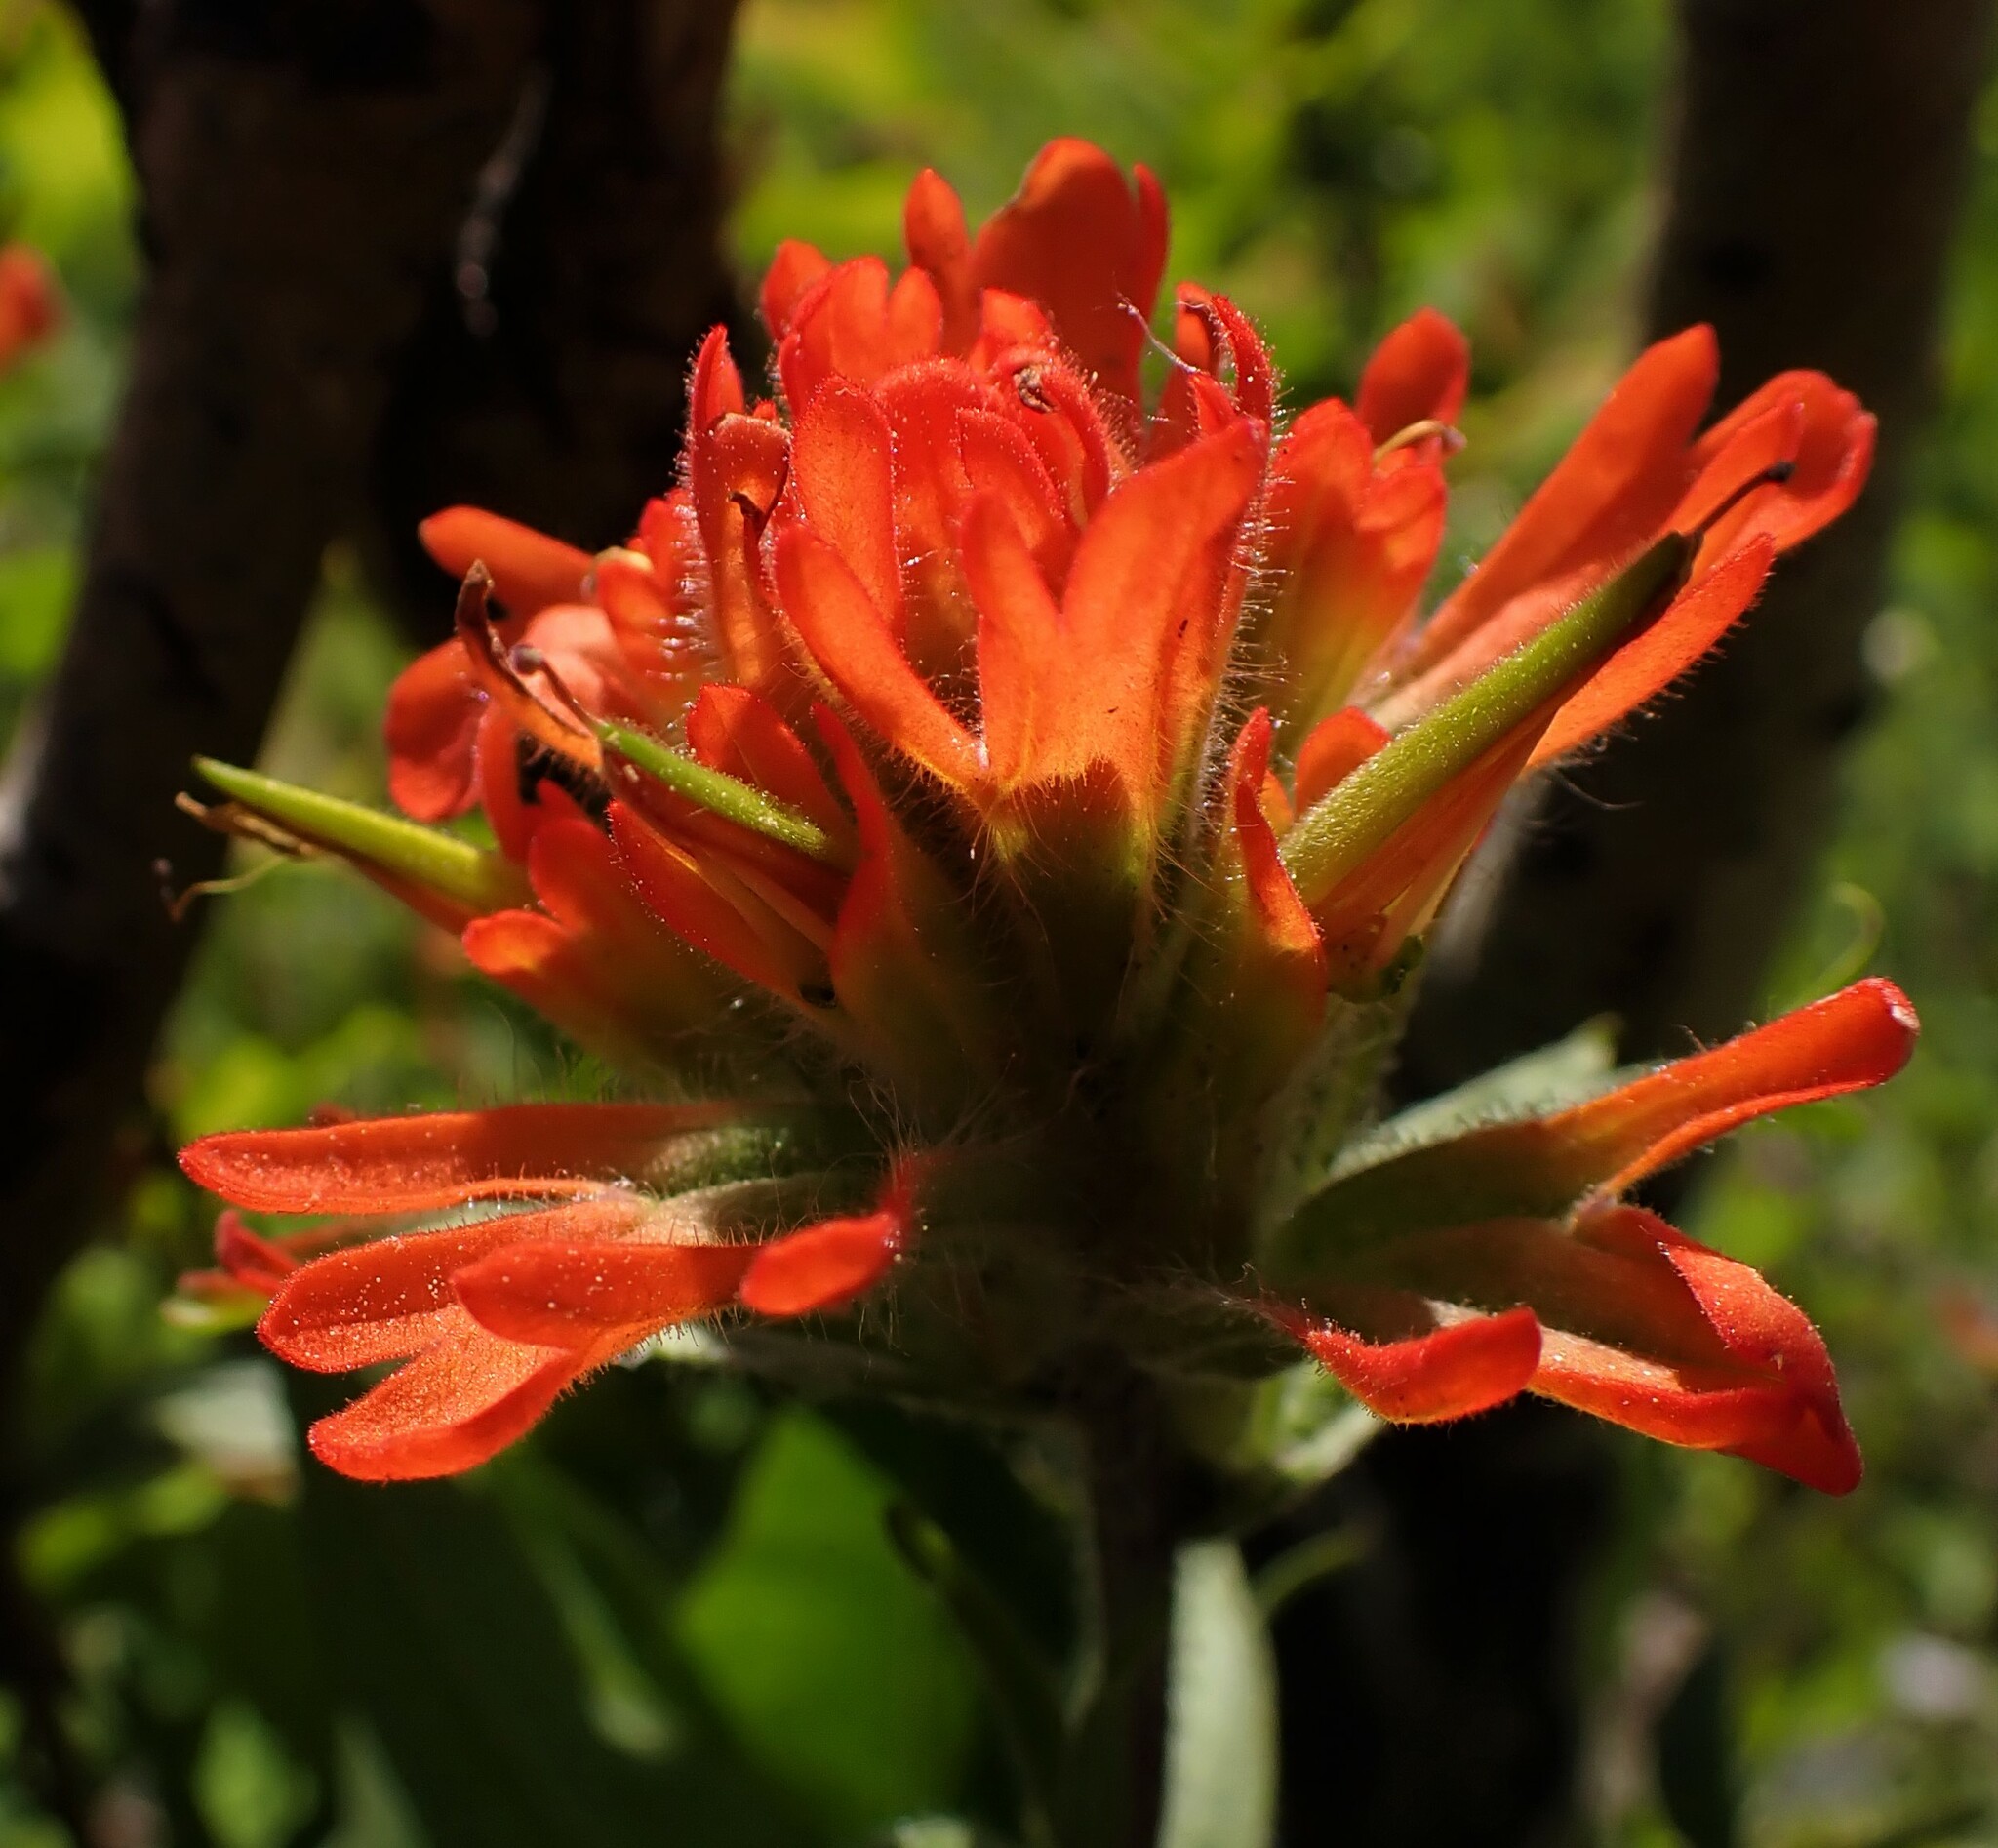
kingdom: Plantae
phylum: Tracheophyta
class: Magnoliopsida
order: Lamiales
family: Orobanchaceae
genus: Castilleja
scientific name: Castilleja hispida
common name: Bristly paintbrush
